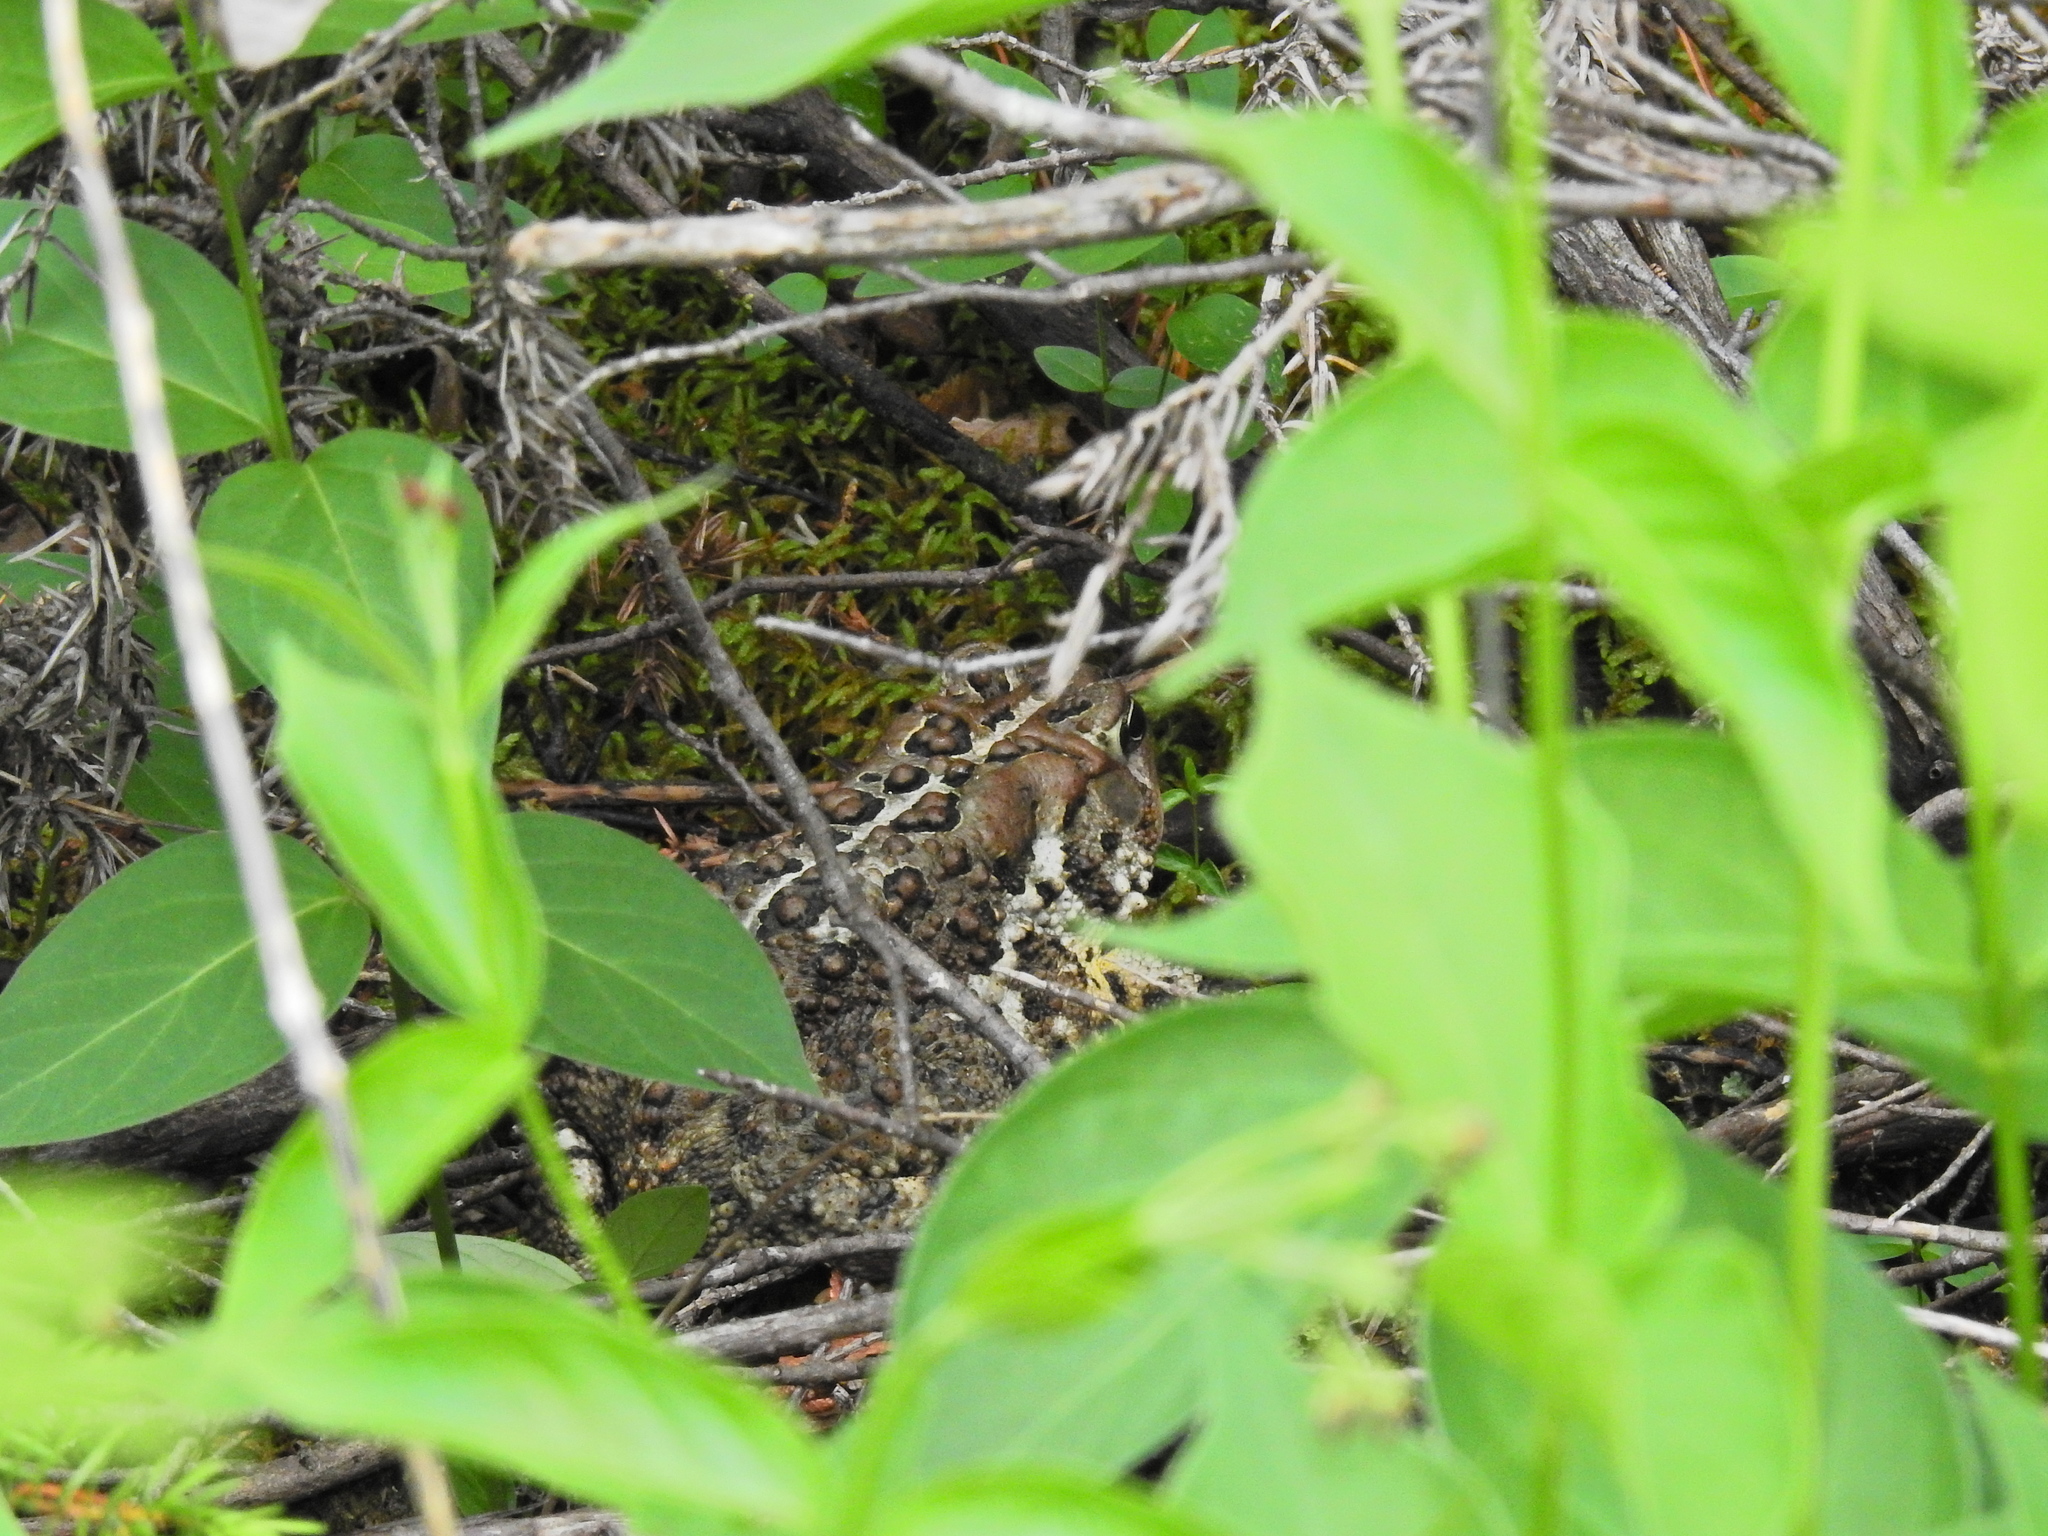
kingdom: Animalia
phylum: Chordata
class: Amphibia
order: Anura
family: Bufonidae
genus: Anaxyrus
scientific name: Anaxyrus americanus
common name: American toad
